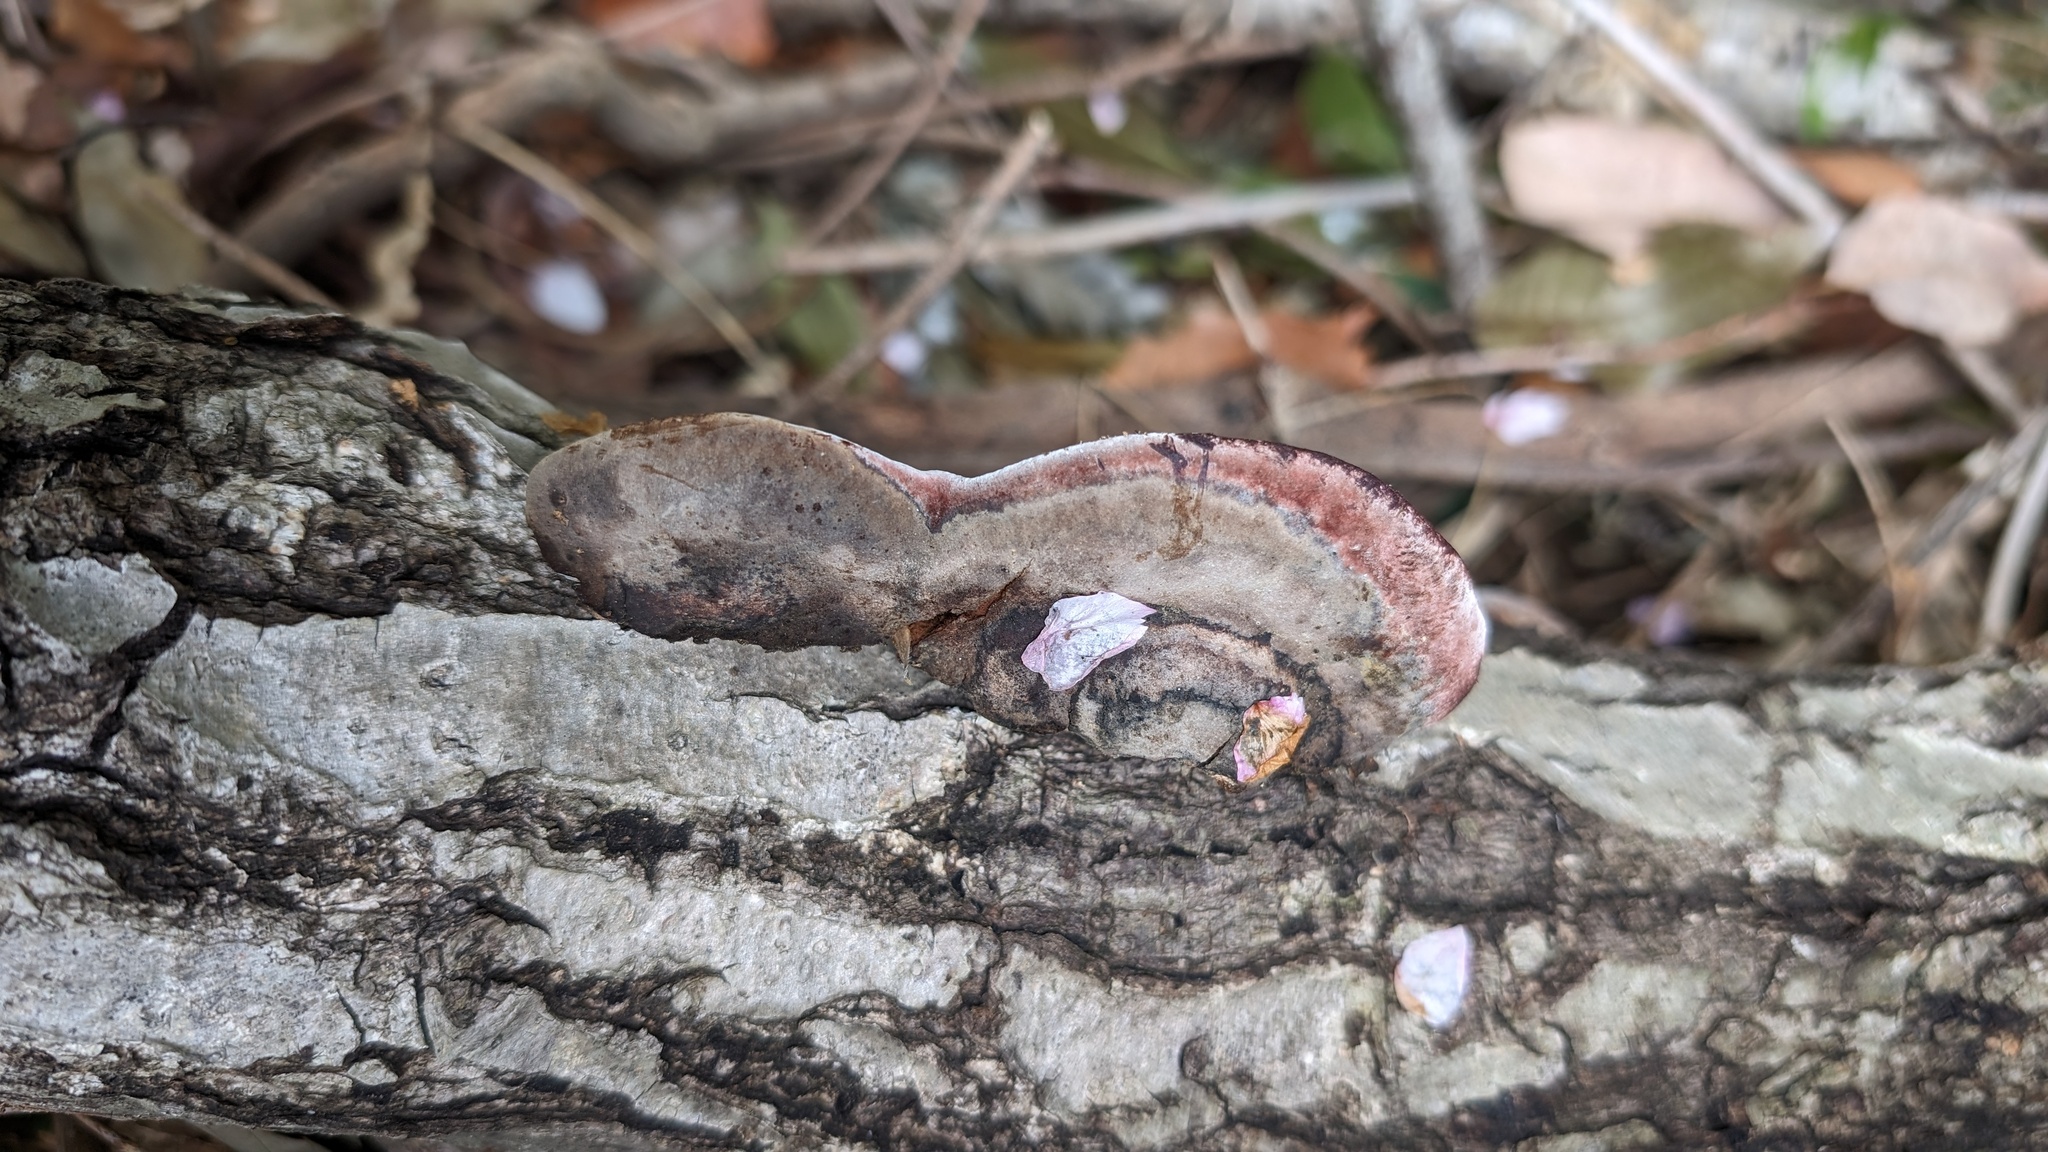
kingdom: Fungi
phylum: Basidiomycota
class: Agaricomycetes
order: Polyporales
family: Polyporaceae
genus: Abundisporus
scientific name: Abundisporus pubertatis
